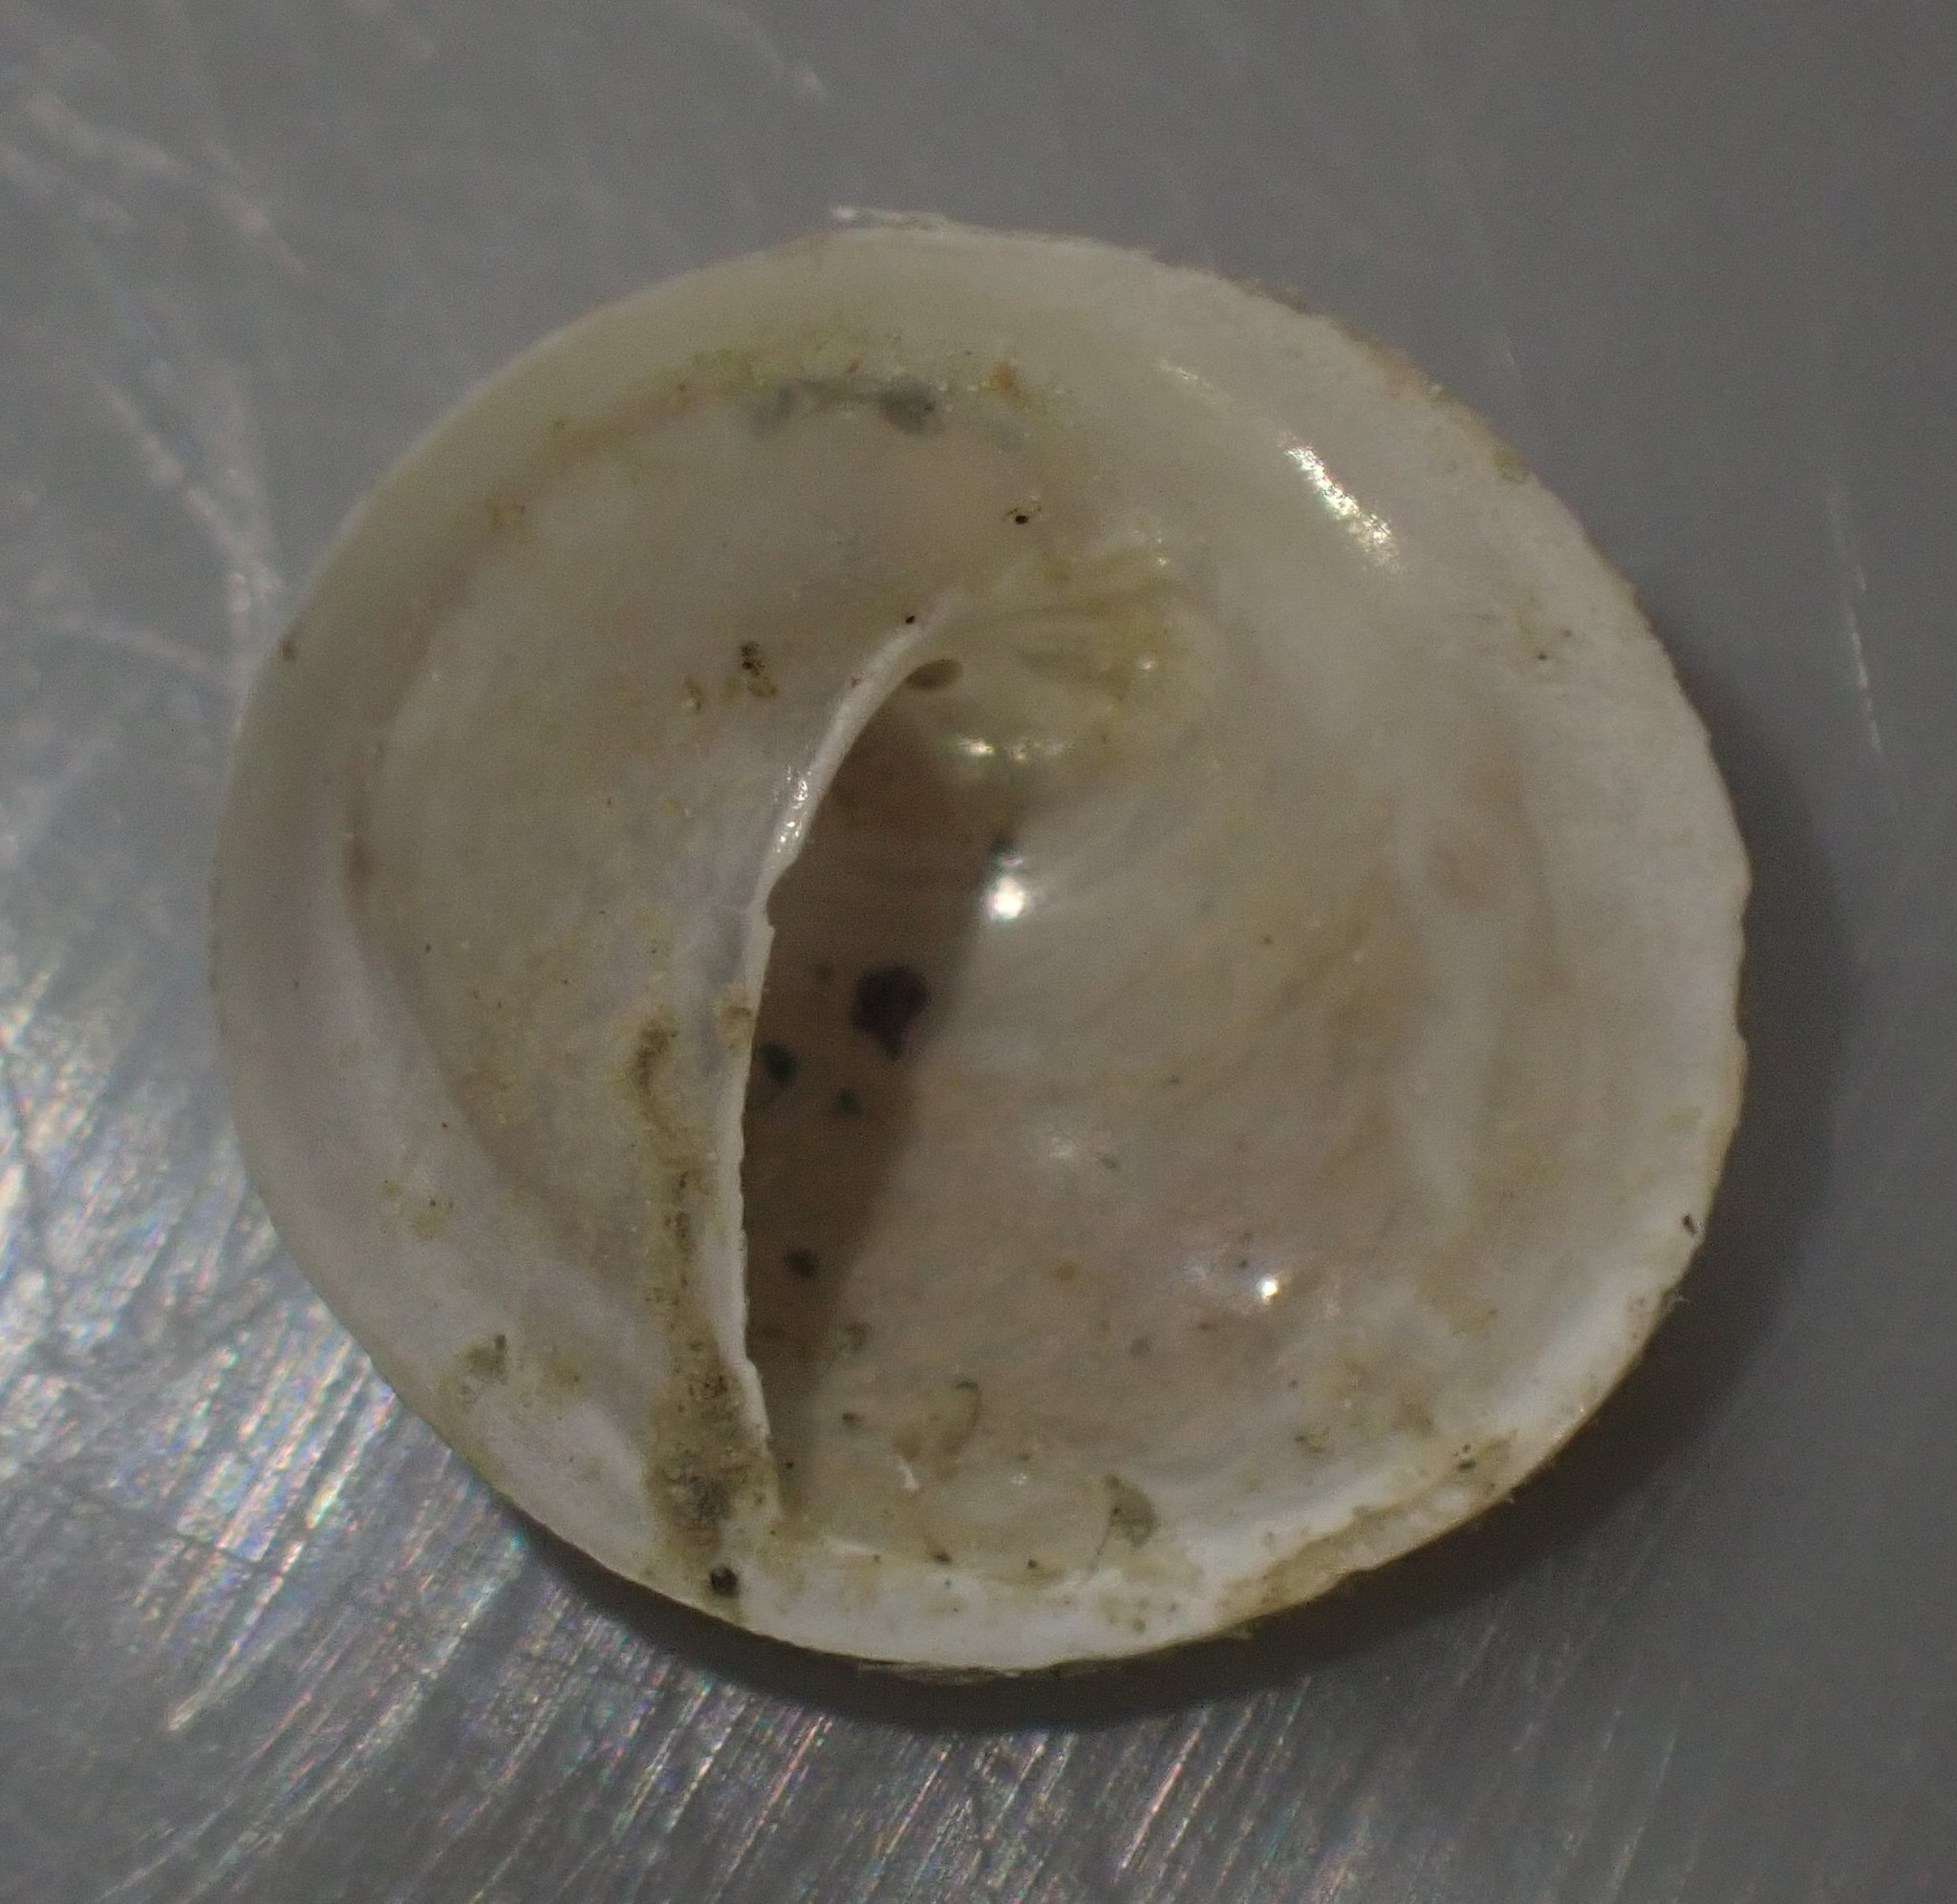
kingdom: Animalia
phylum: Mollusca
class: Gastropoda
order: Littorinimorpha
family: Calyptraeidae
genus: Sigapatella
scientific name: Sigapatella tenuis
